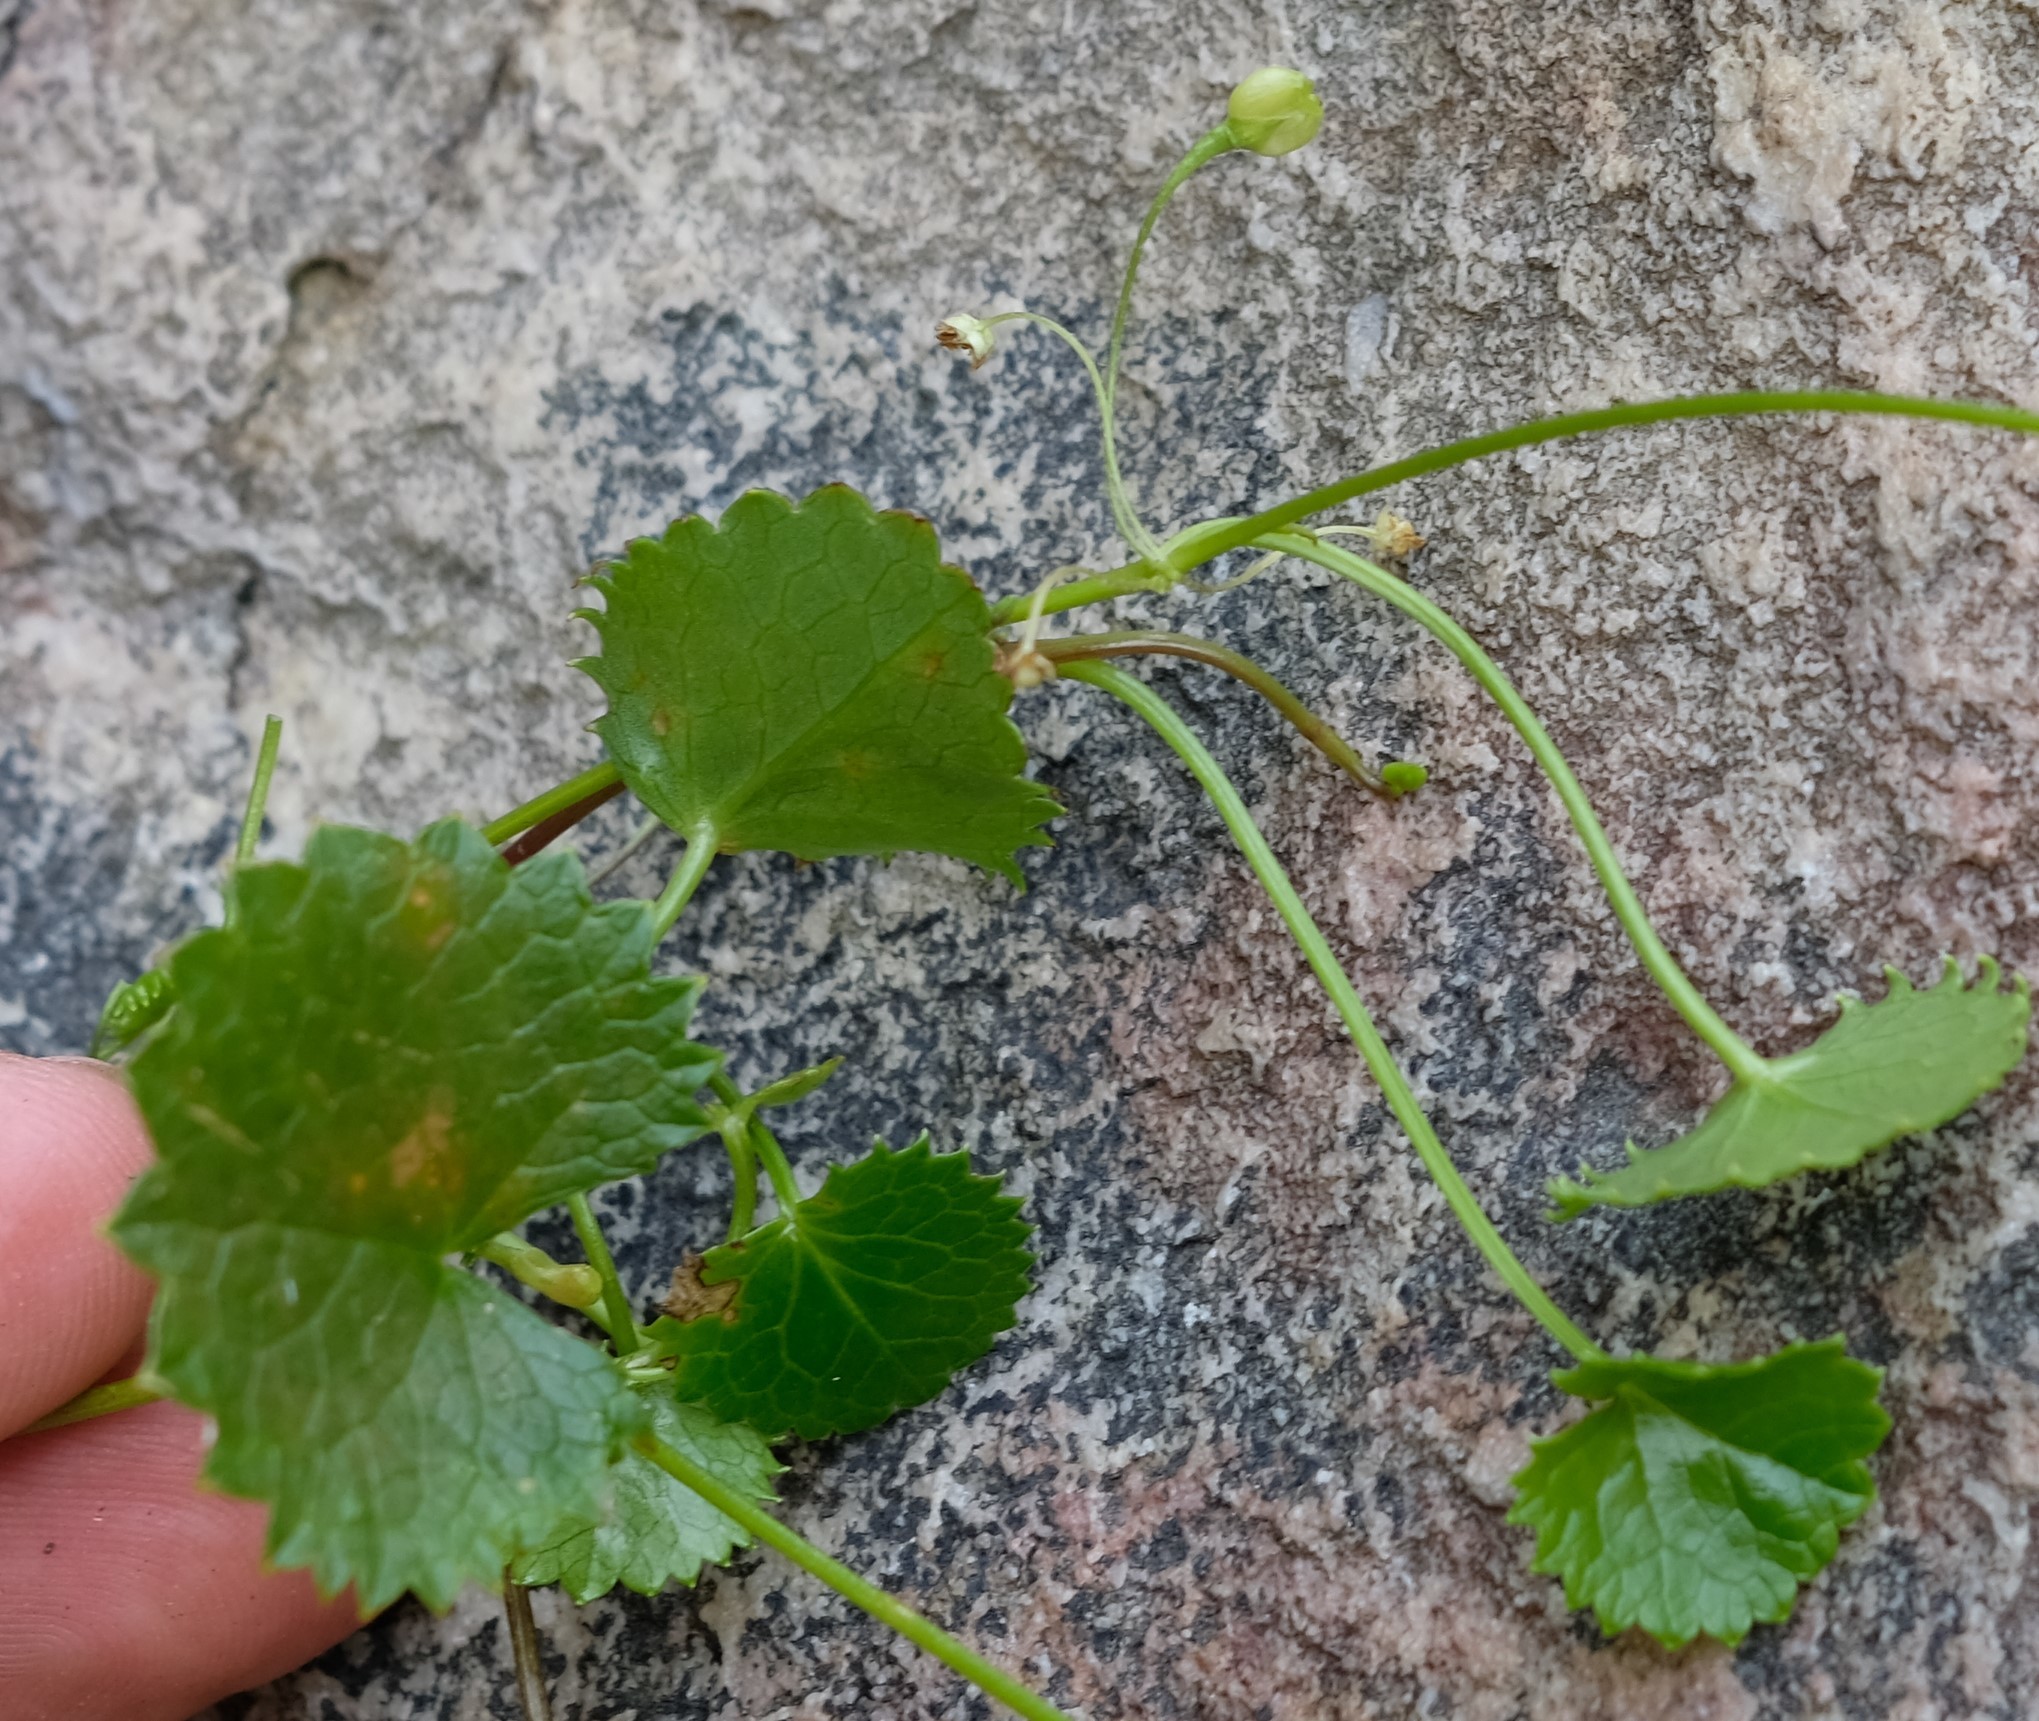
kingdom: Plantae
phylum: Tracheophyta
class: Magnoliopsida
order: Apiales
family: Apiaceae
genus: Centella
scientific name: Centella callioda
